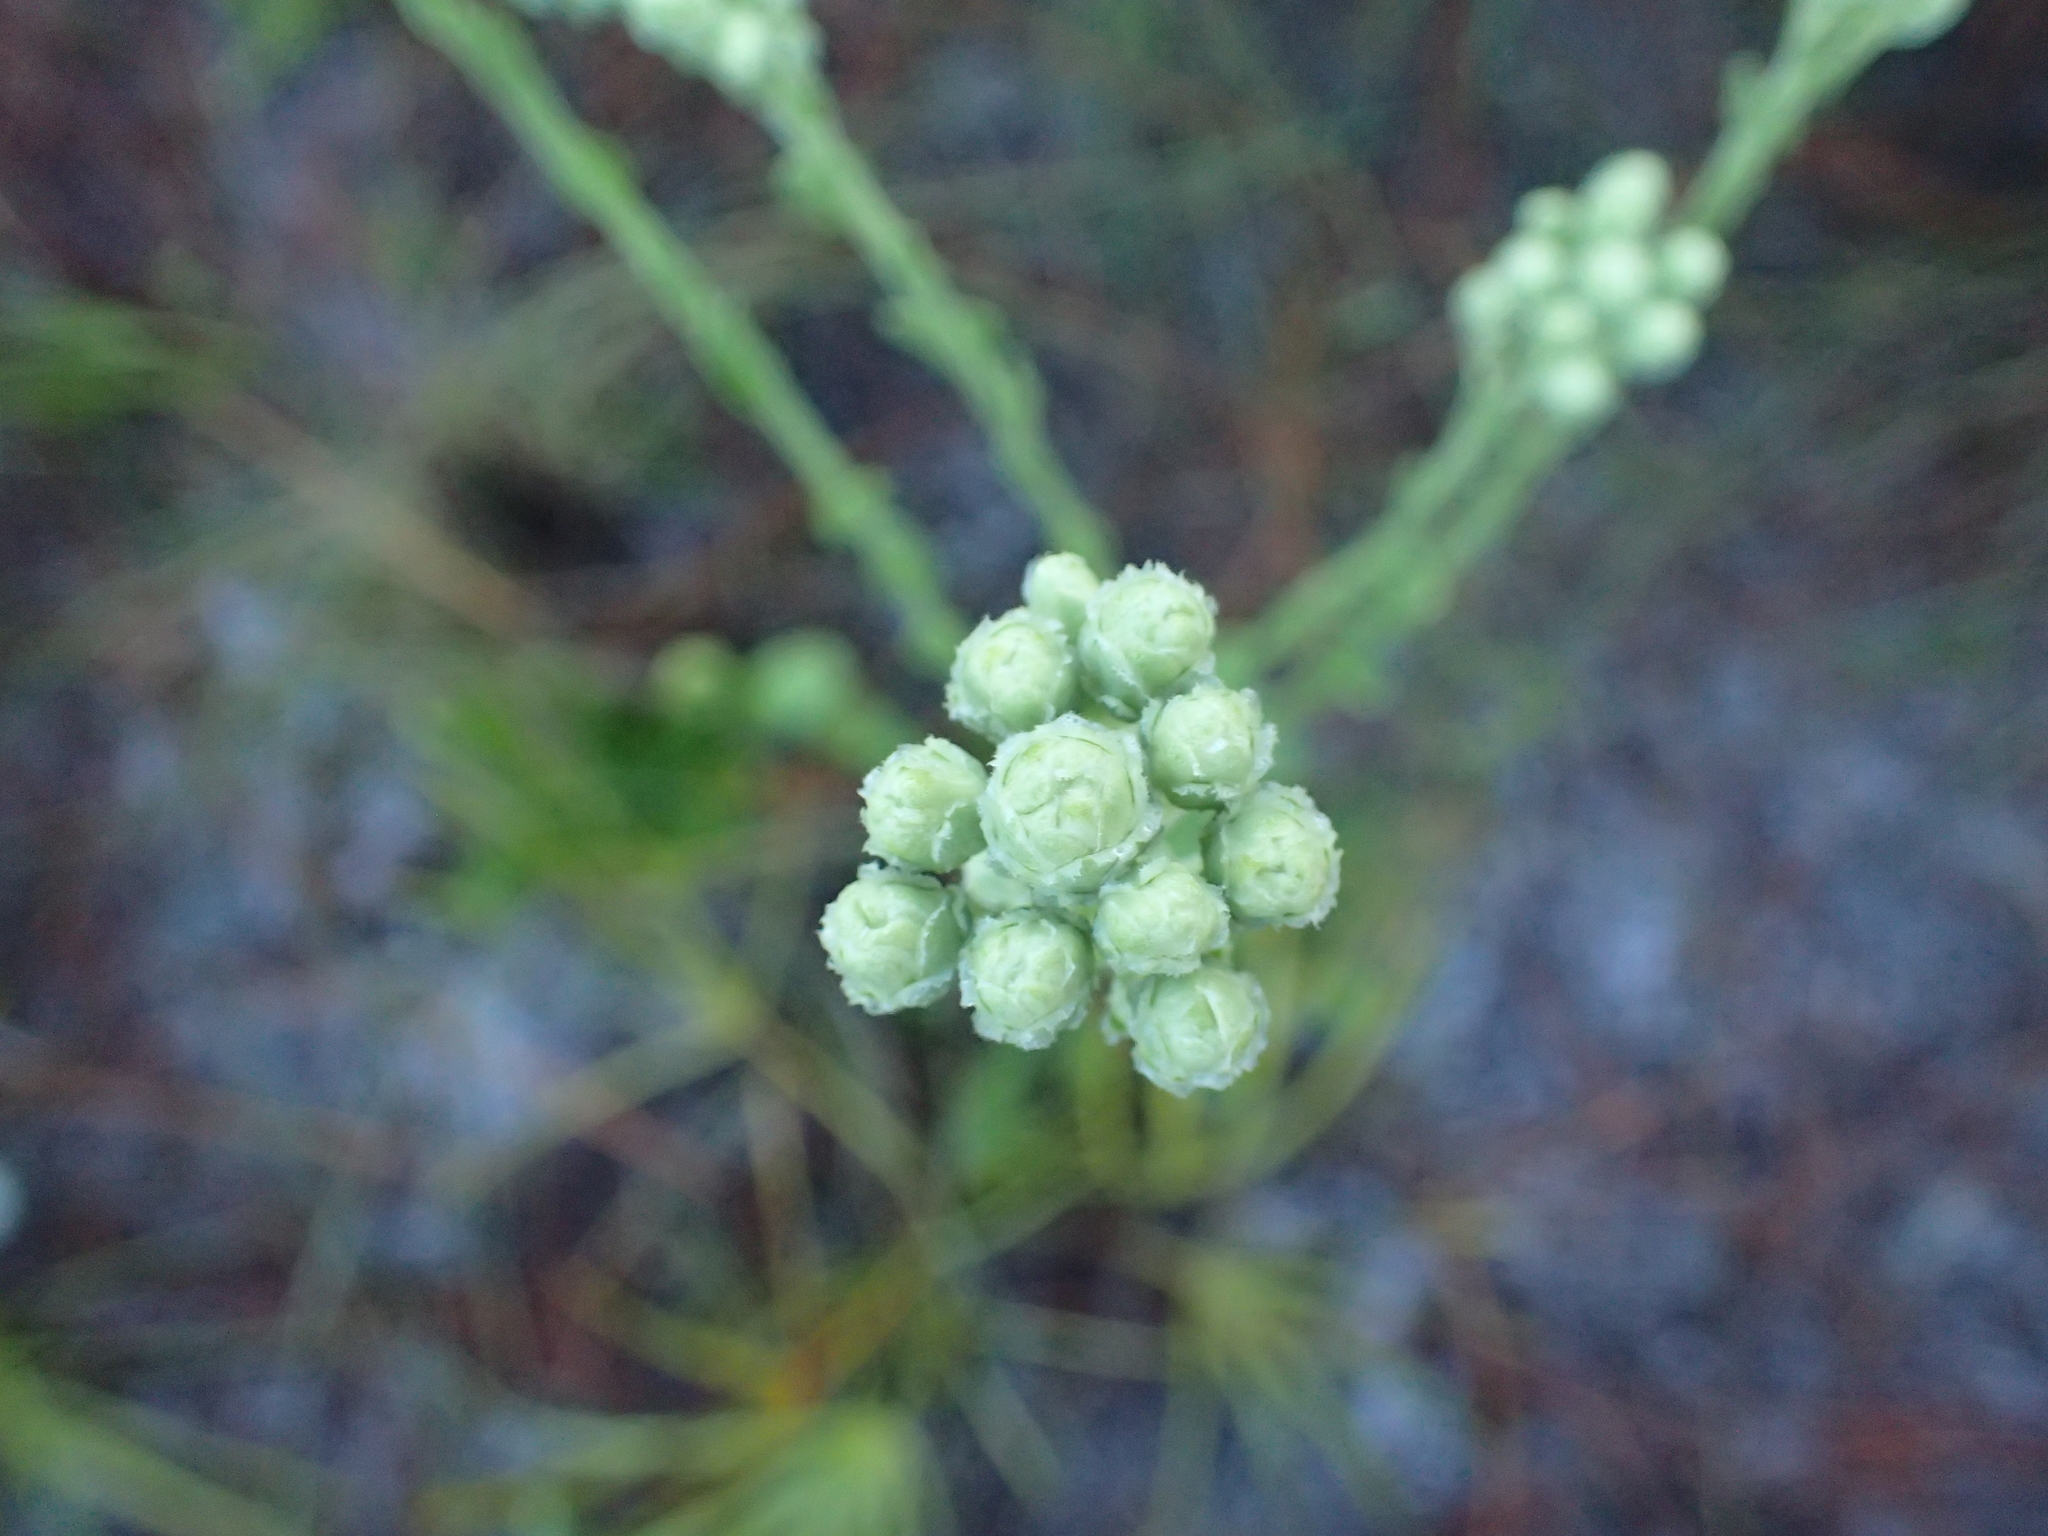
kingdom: Plantae
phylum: Tracheophyta
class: Magnoliopsida
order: Asterales
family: Asteraceae
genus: Carphephorus
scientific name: Carphephorus corymbosus
